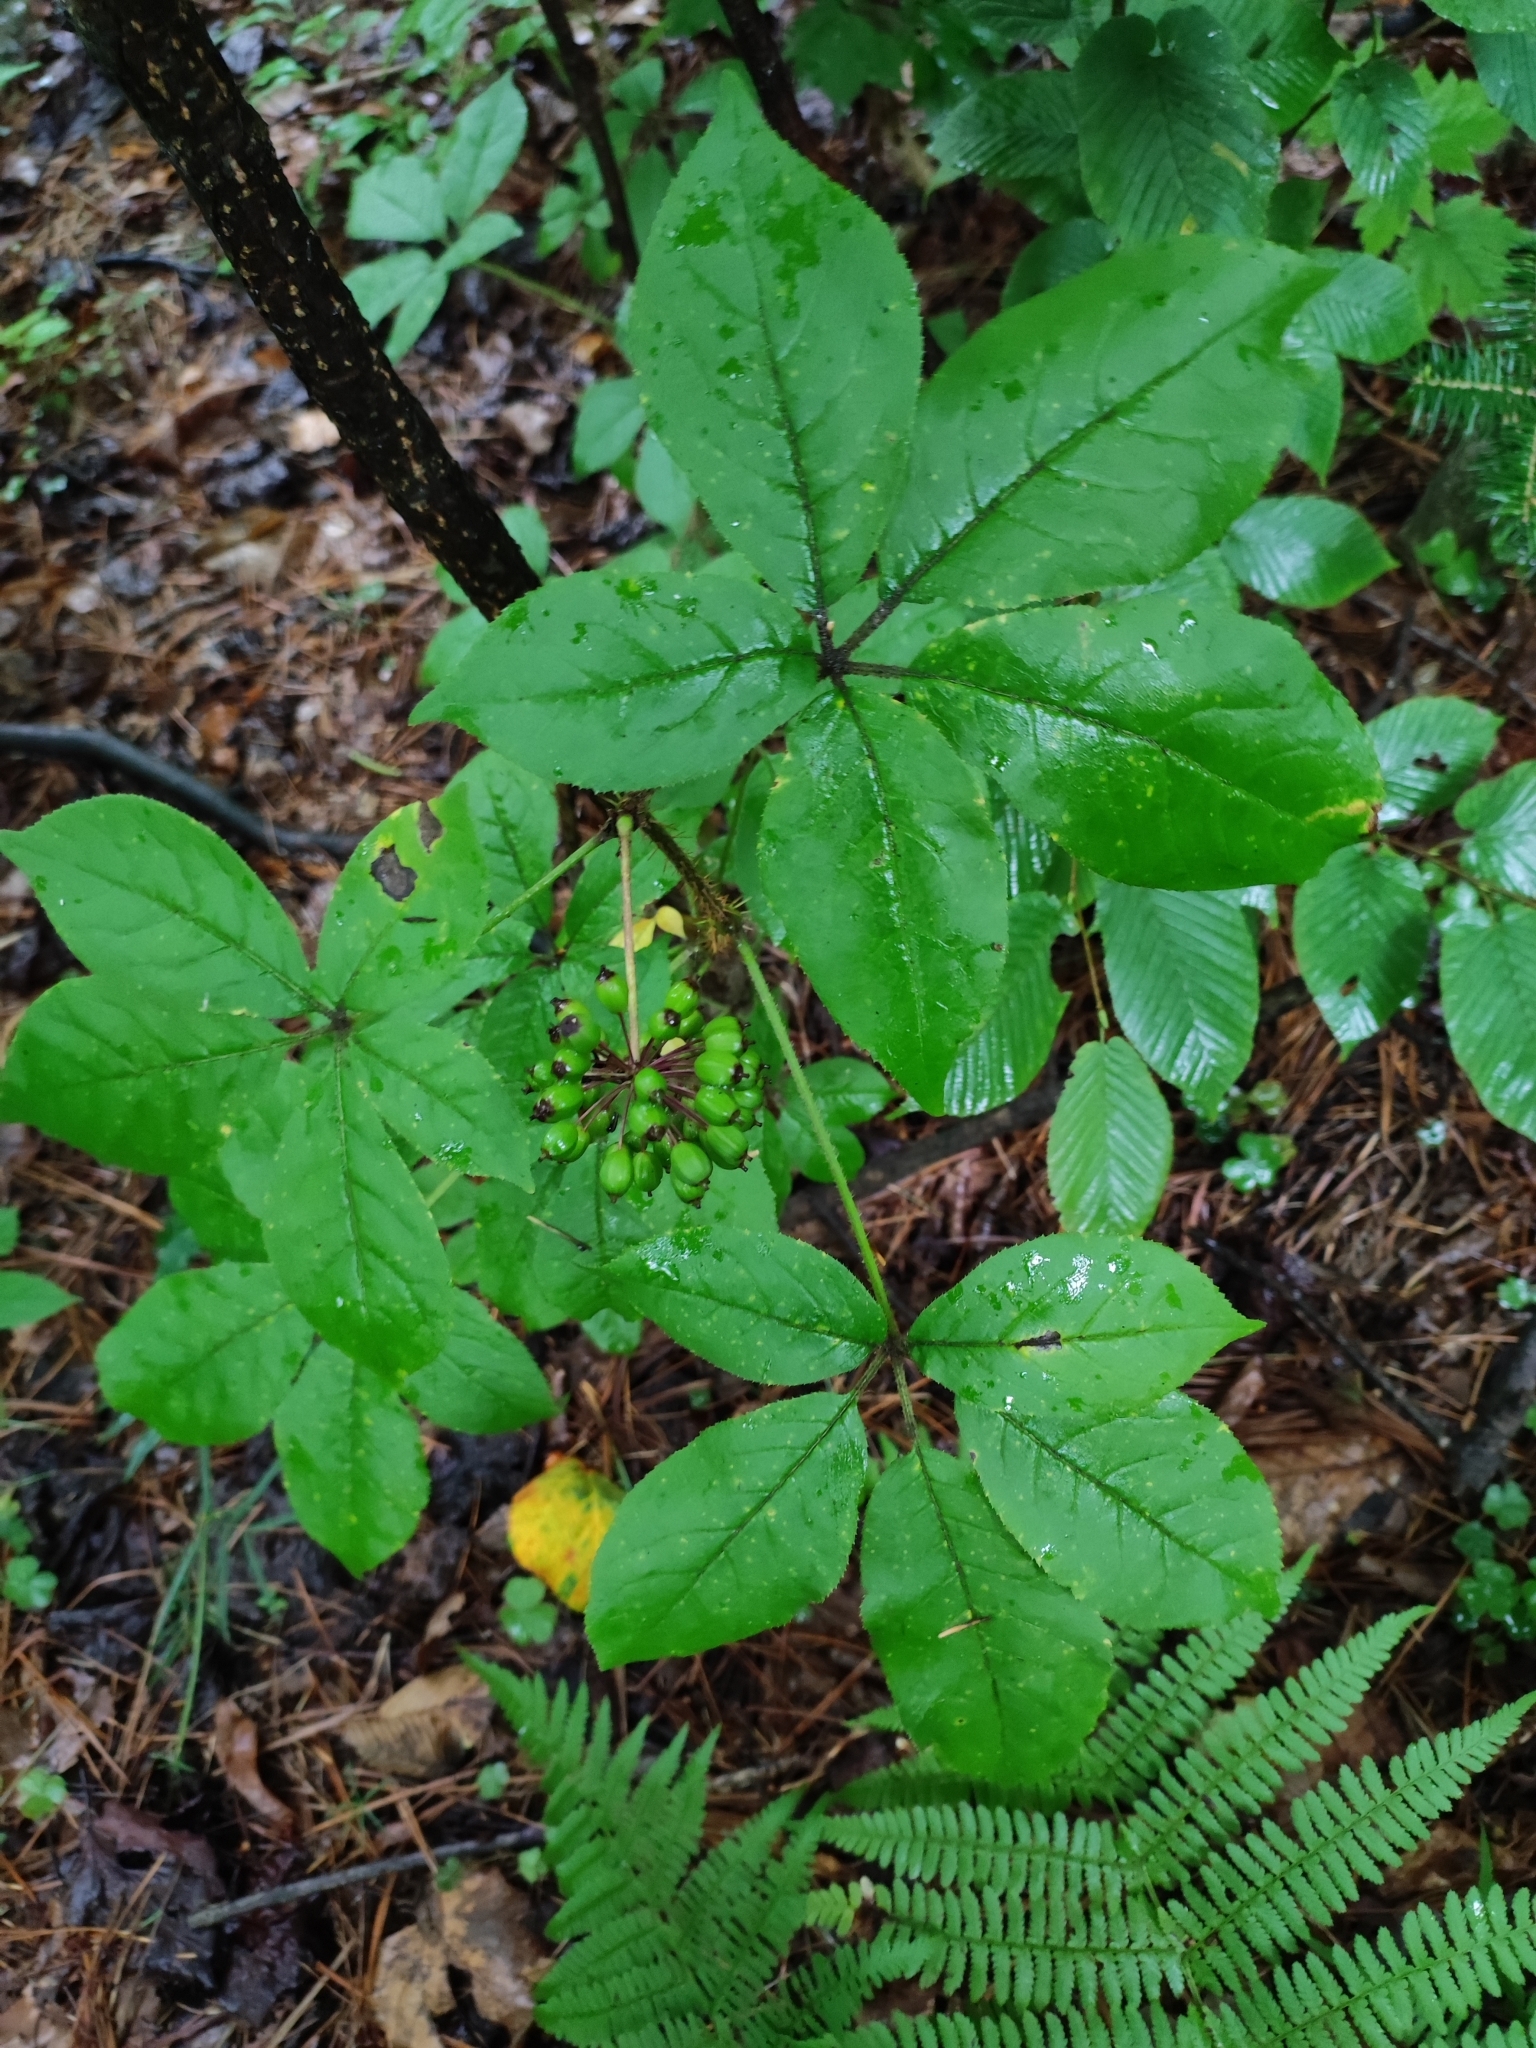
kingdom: Plantae
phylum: Tracheophyta
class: Magnoliopsida
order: Apiales
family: Araliaceae
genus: Eleutherococcus
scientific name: Eleutherococcus senticosus
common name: Siberian-ginseng
